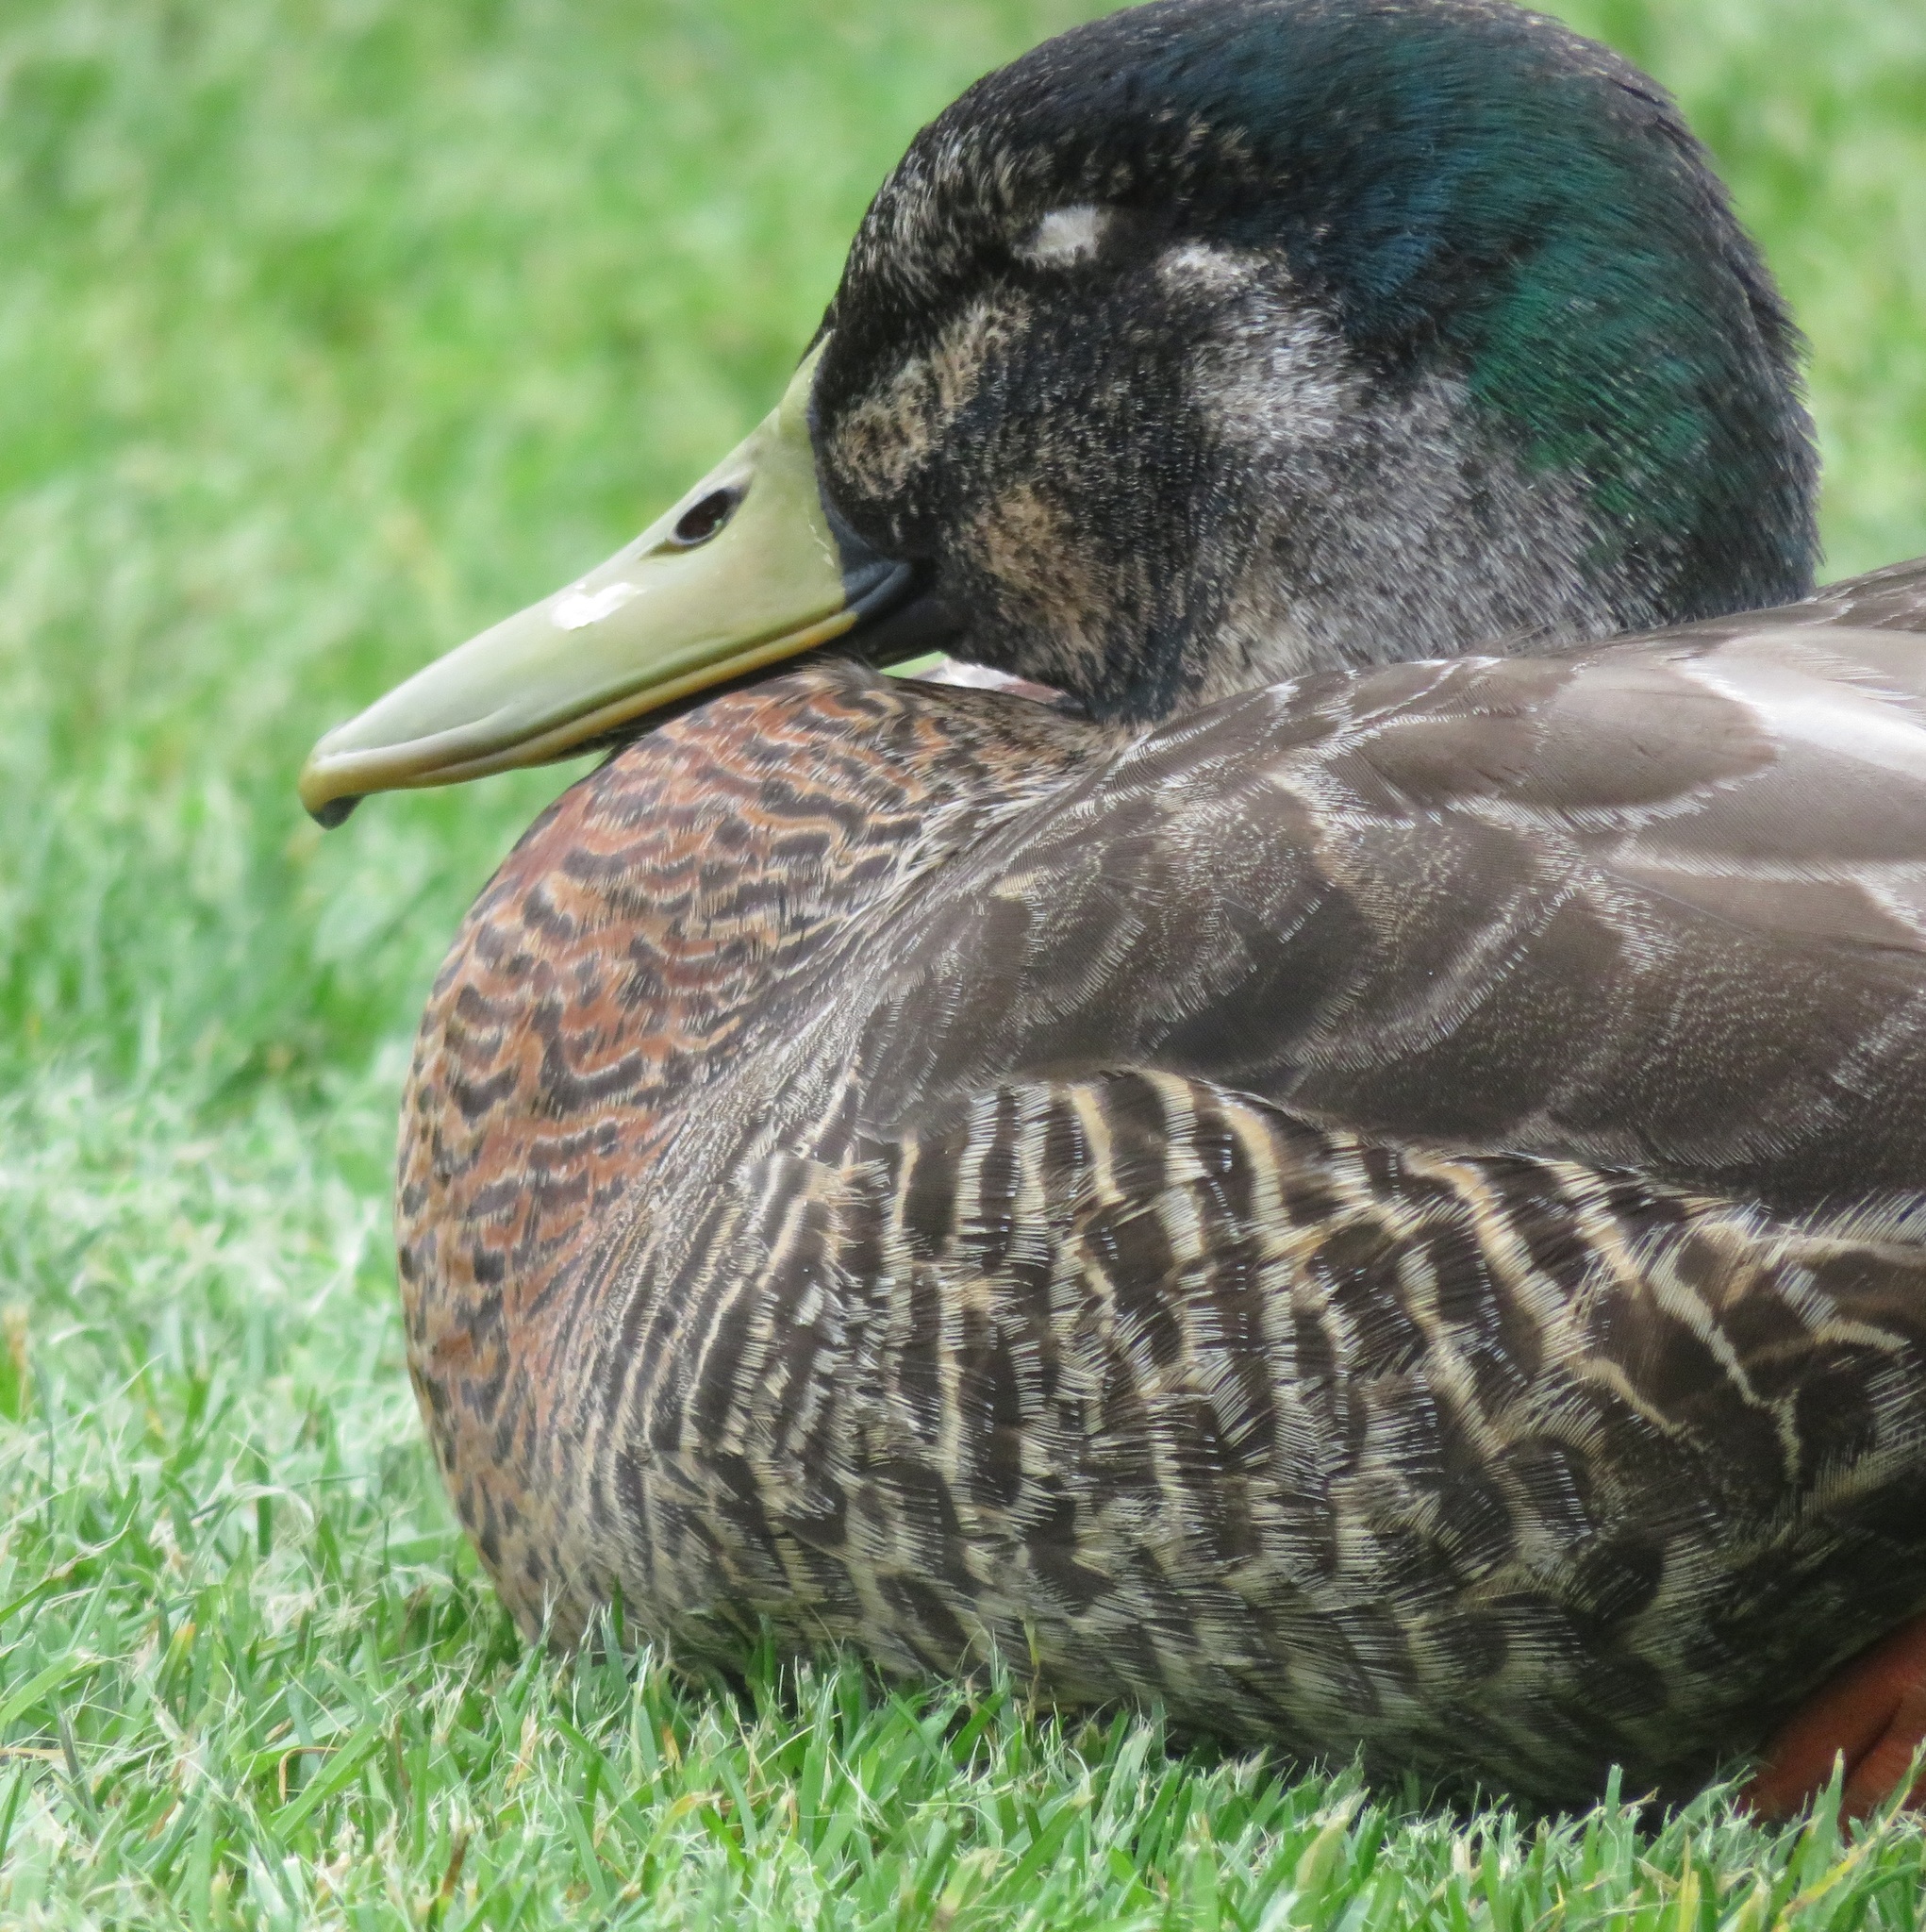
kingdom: Animalia
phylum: Chordata
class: Aves
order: Anseriformes
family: Anatidae
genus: Anas
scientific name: Anas
